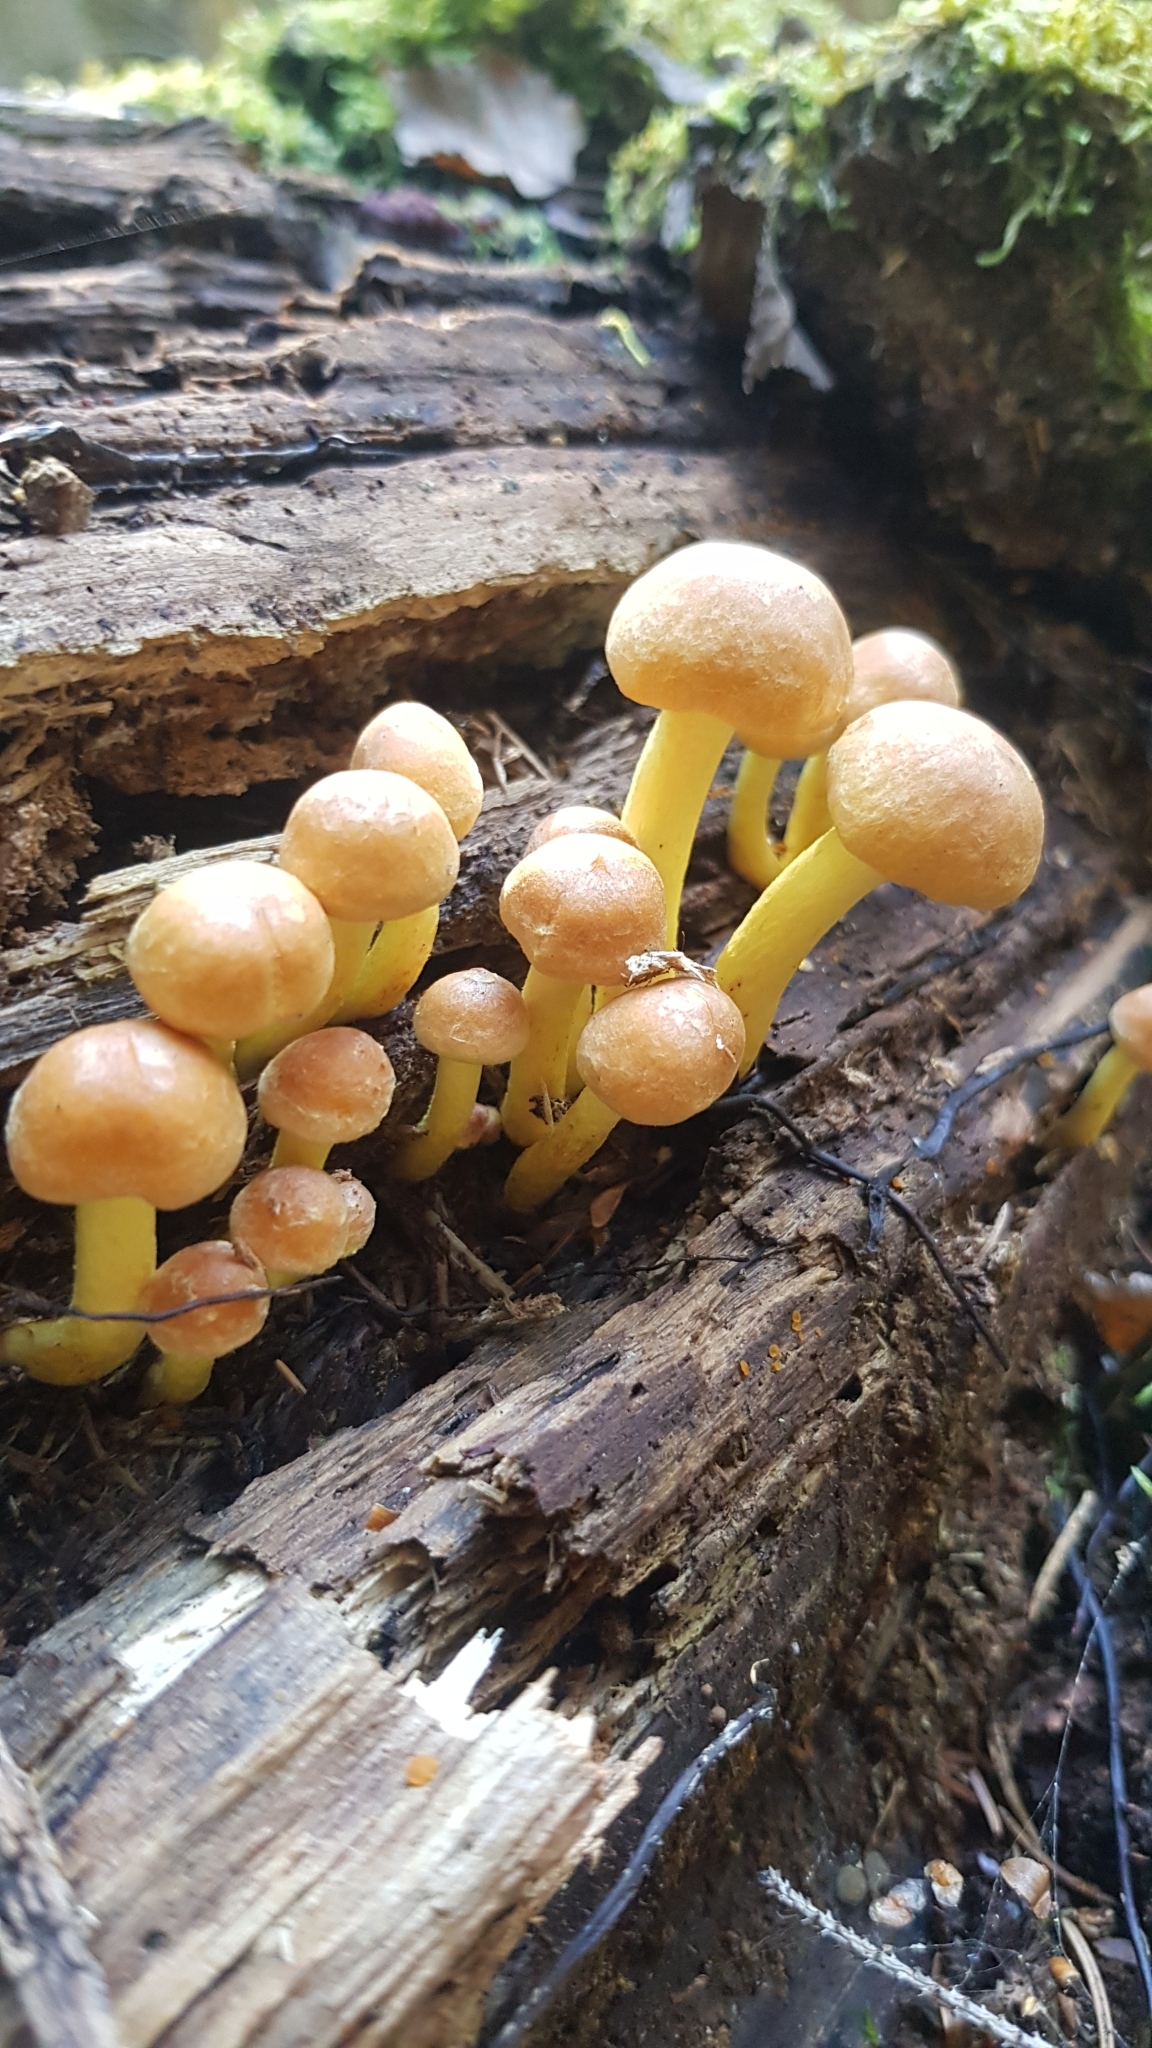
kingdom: Fungi
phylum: Basidiomycota
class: Agaricomycetes
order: Agaricales
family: Strophariaceae
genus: Hypholoma
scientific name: Hypholoma fasciculare
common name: Sulphur tuft
